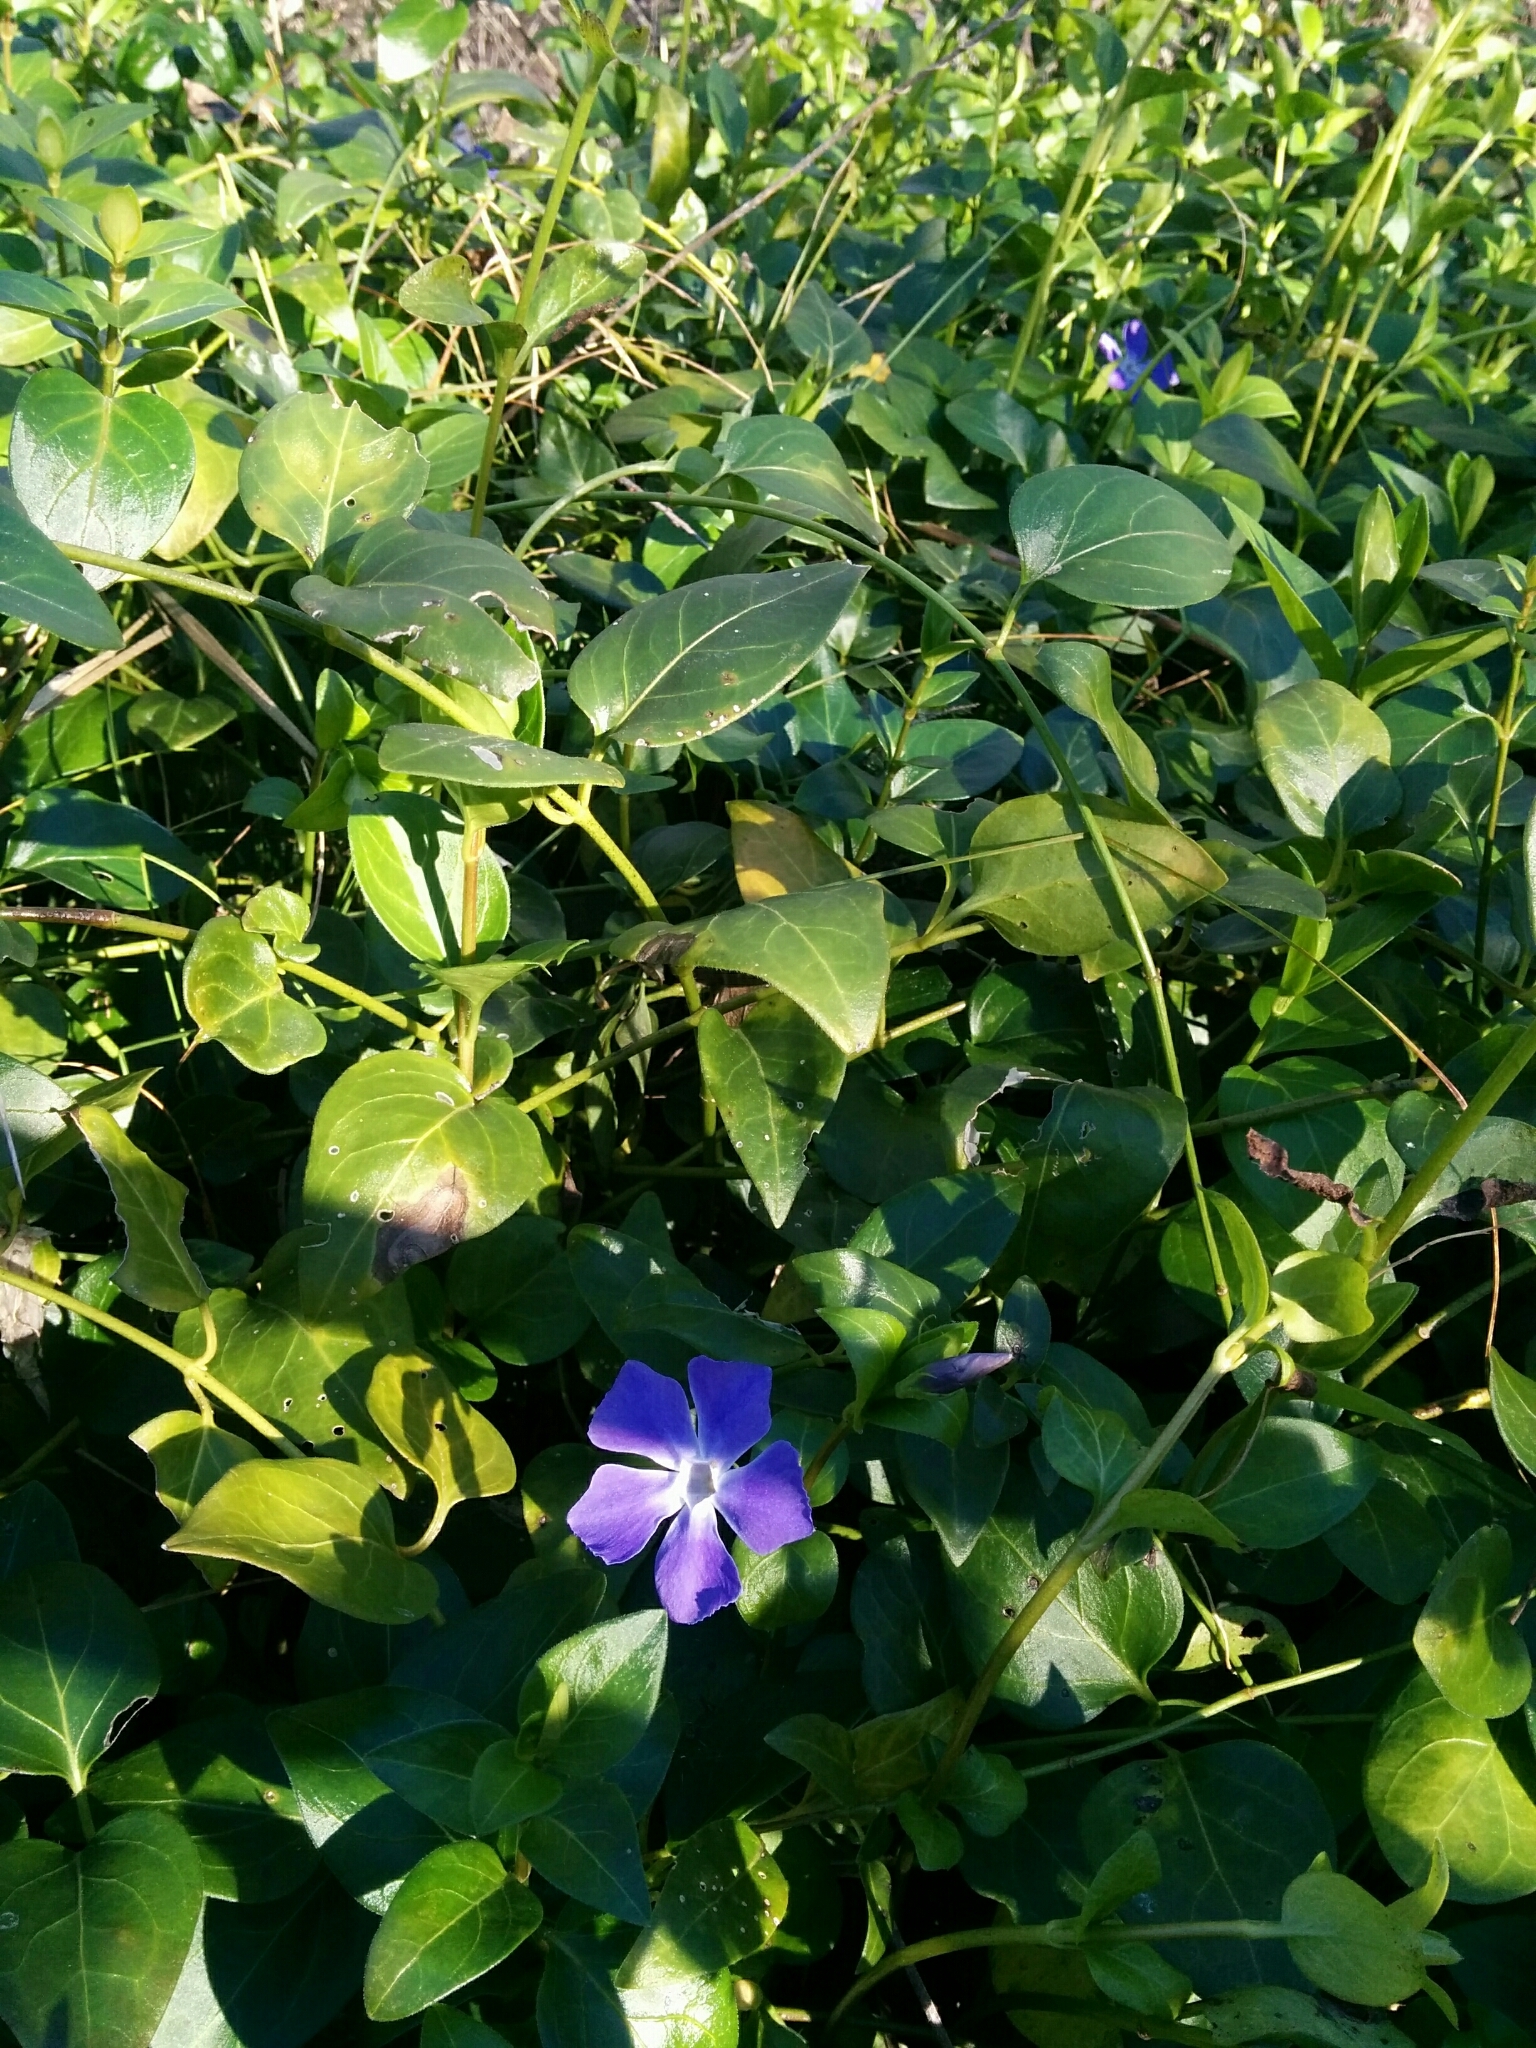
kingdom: Plantae
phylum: Tracheophyta
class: Magnoliopsida
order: Gentianales
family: Apocynaceae
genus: Vinca
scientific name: Vinca major
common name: Greater periwinkle
